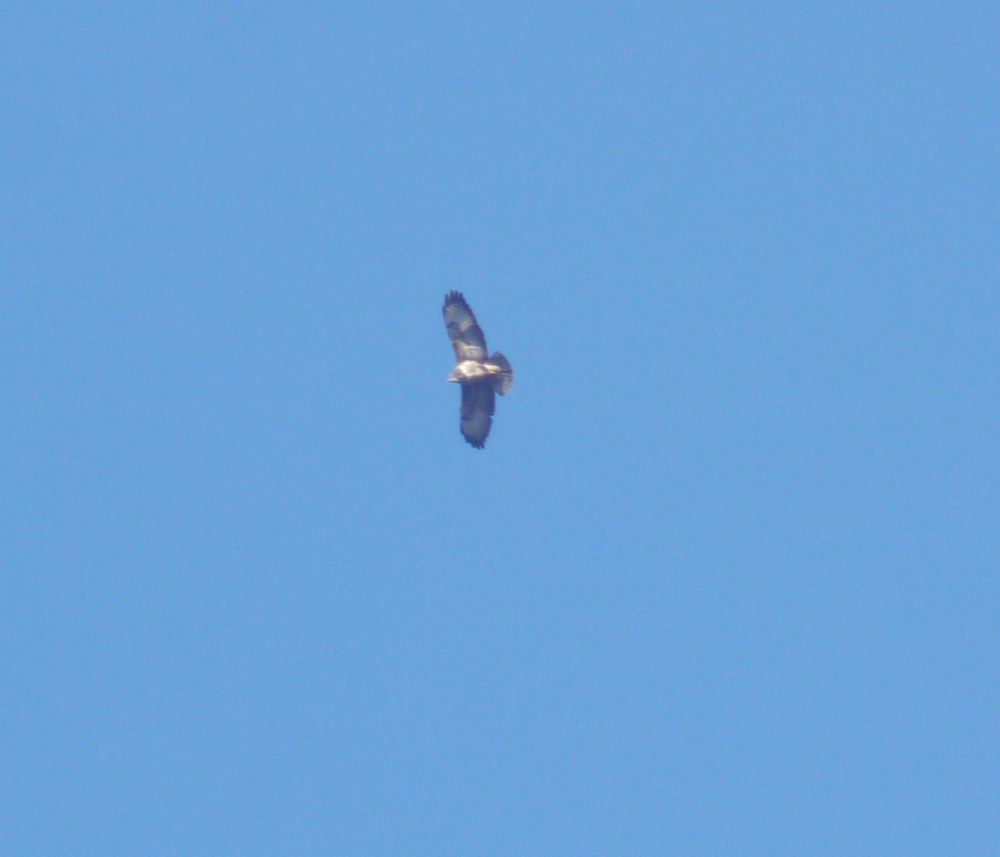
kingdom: Animalia
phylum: Chordata
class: Aves
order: Accipitriformes
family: Accipitridae
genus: Buteo
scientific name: Buteo buteo
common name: Common buzzard
